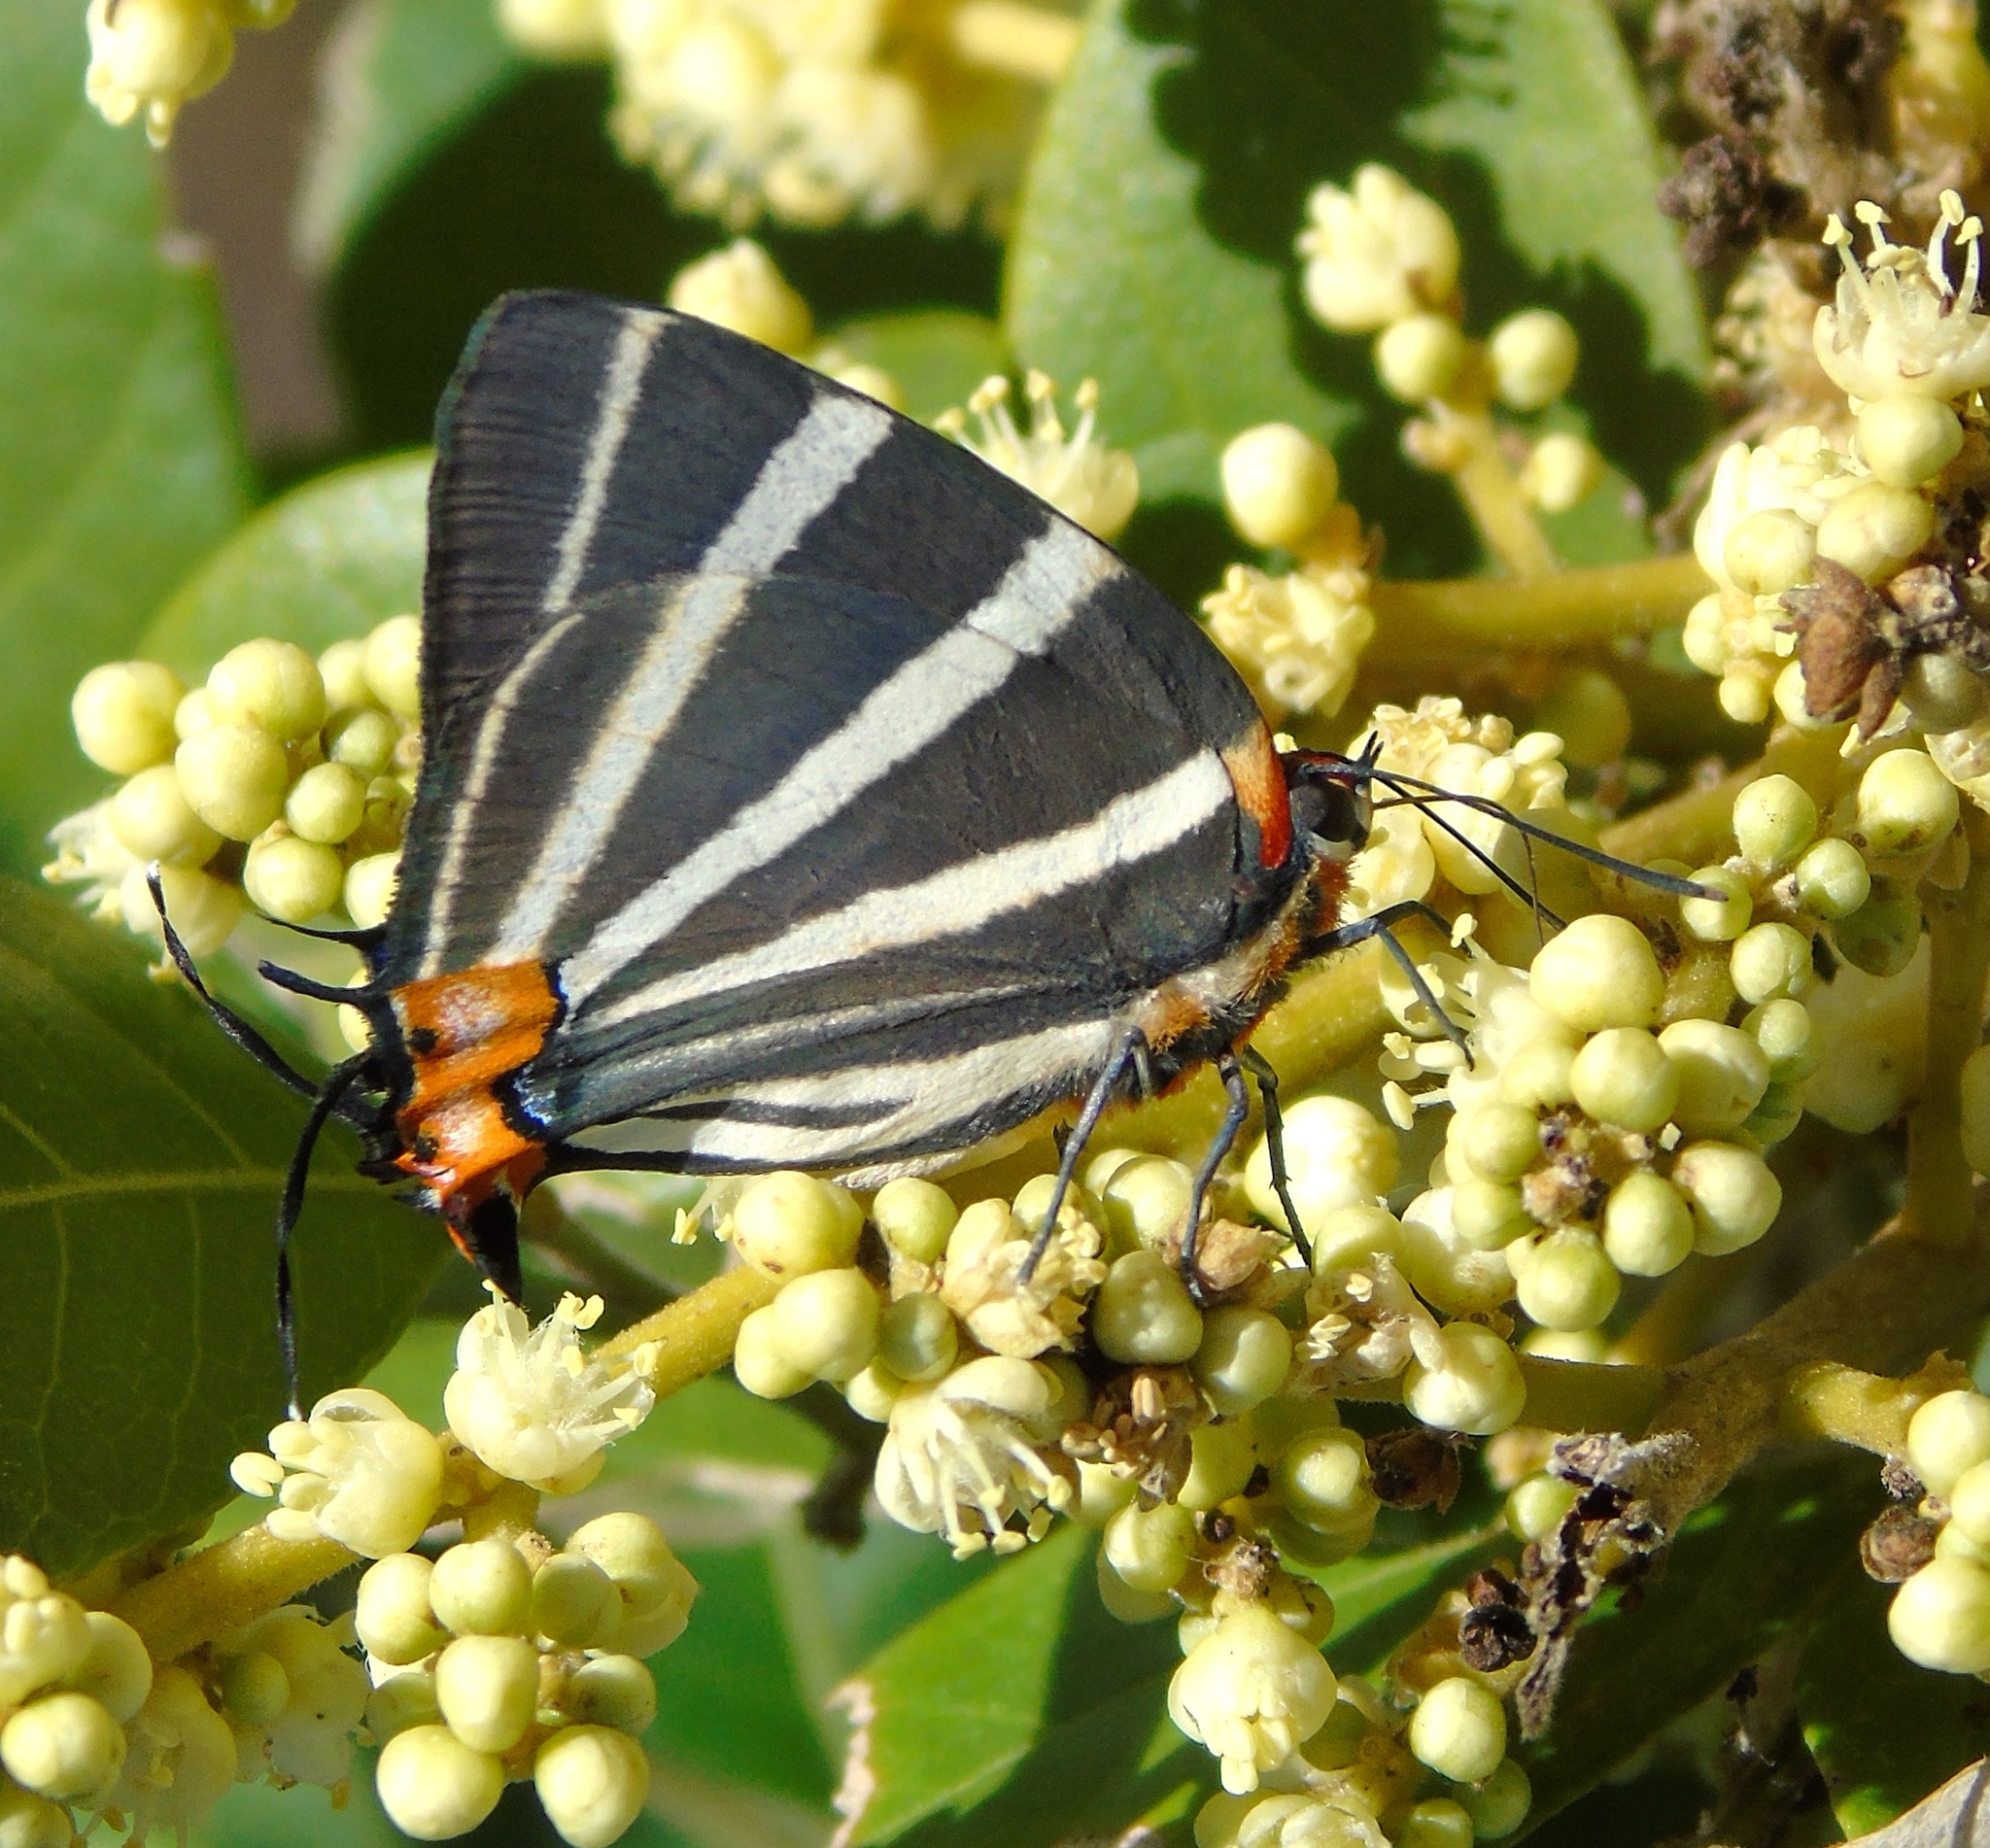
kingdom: Animalia
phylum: Arthropoda
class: Insecta
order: Lepidoptera
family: Lycaenidae
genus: Thecla
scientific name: Thecla bathildis
